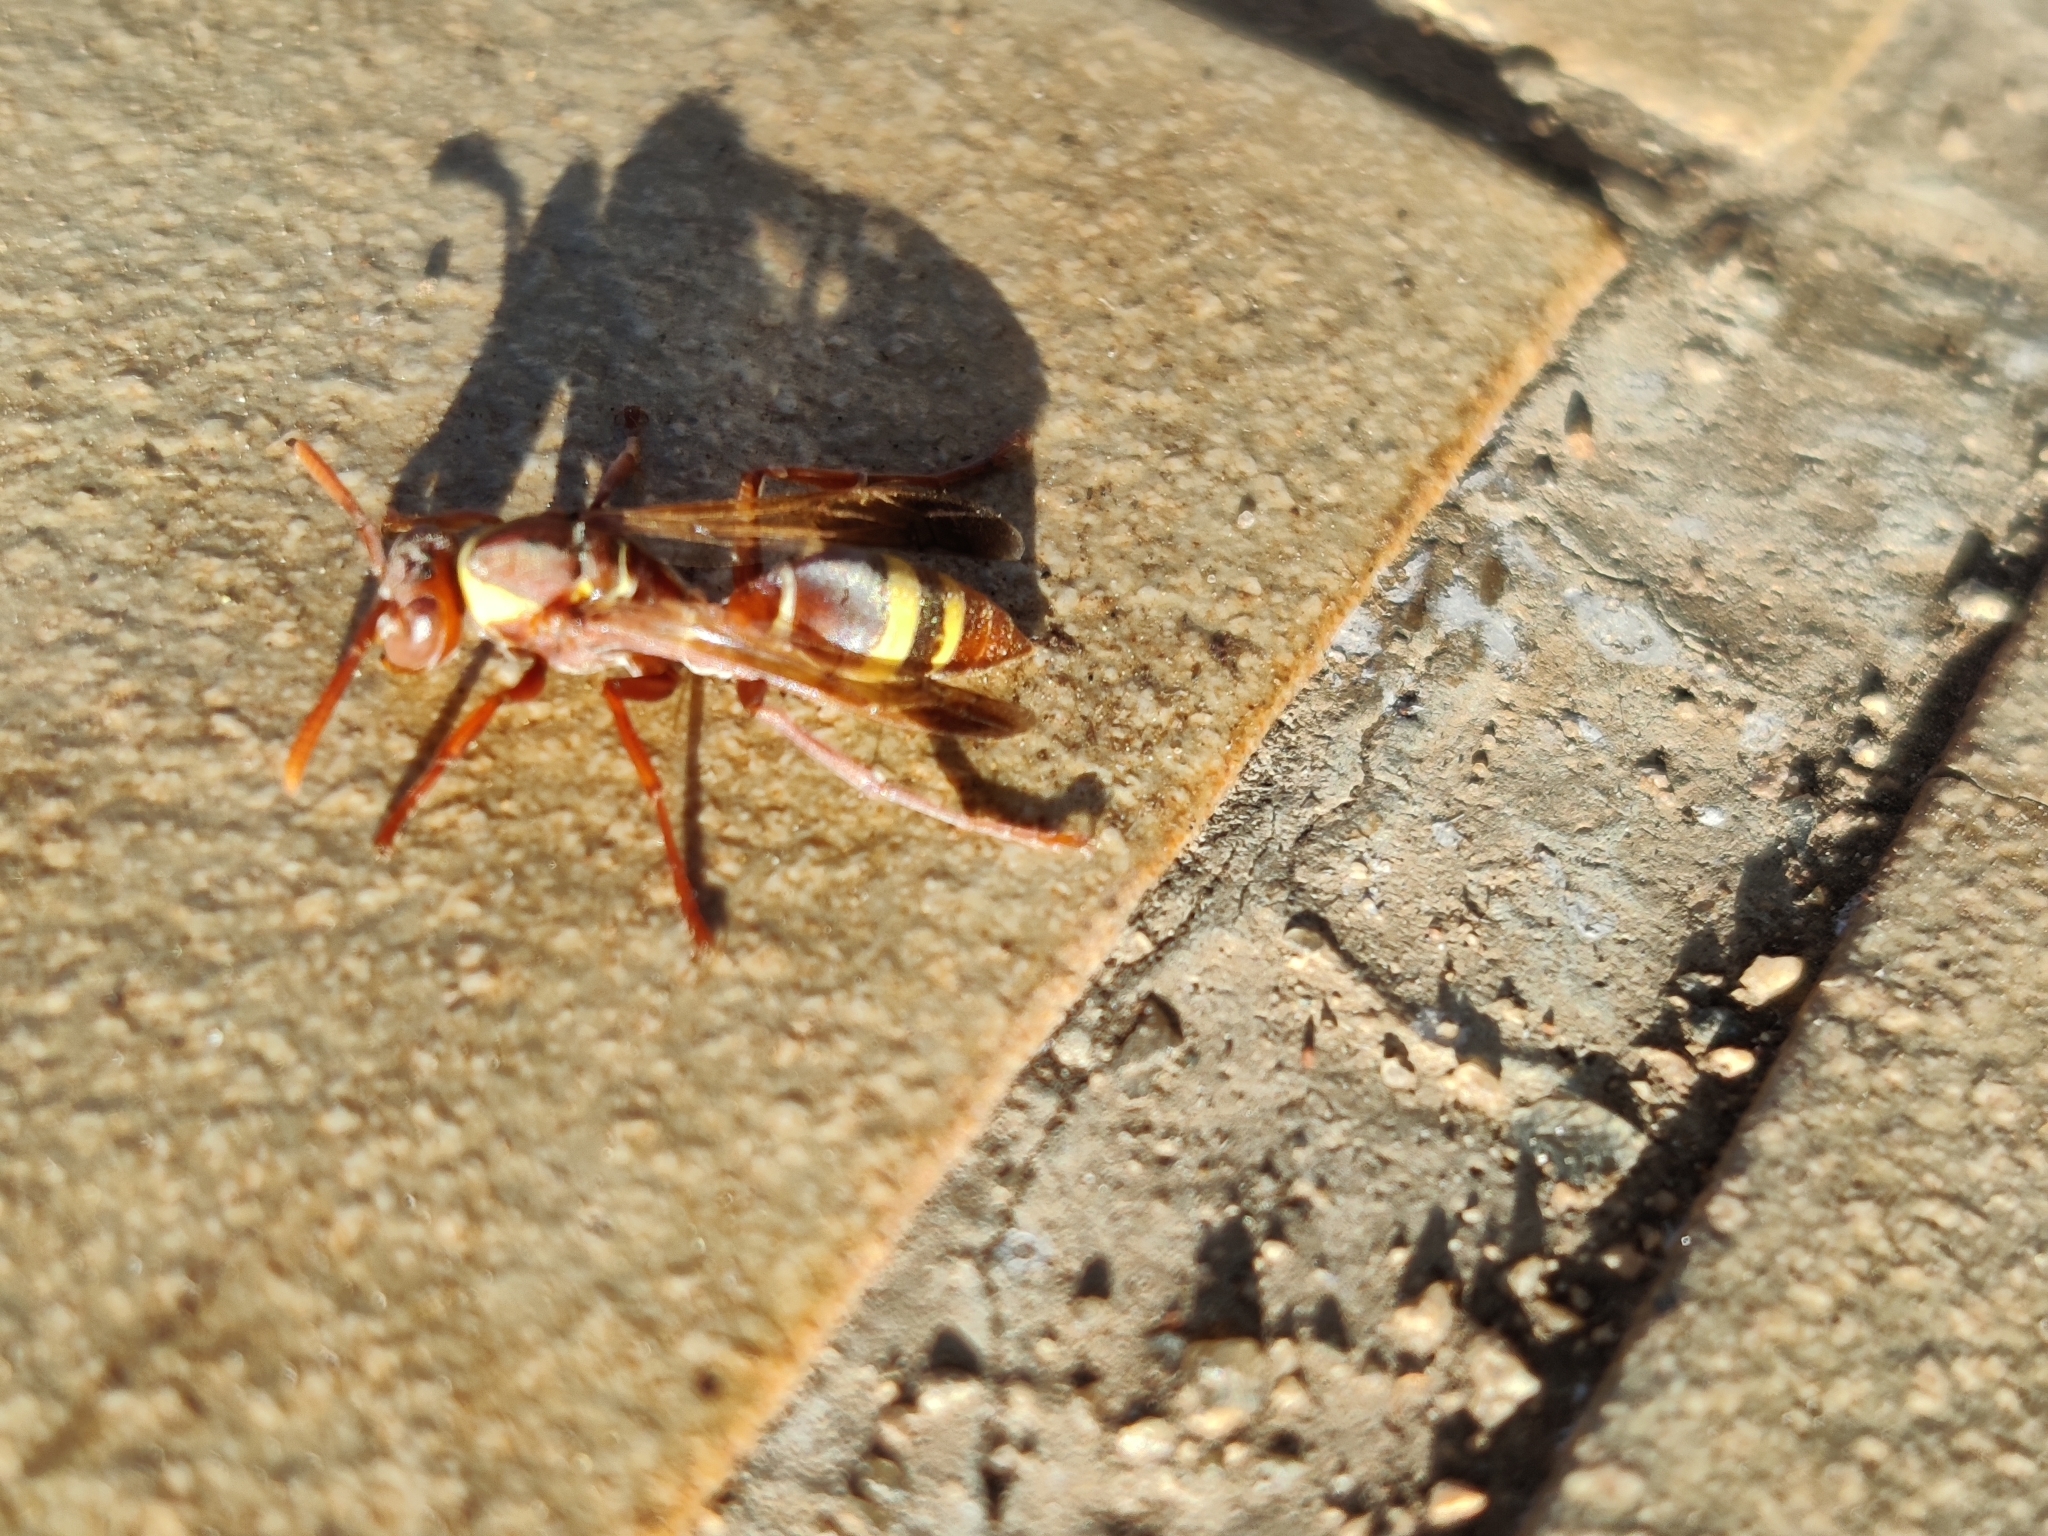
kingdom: Animalia
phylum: Arthropoda
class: Insecta
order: Hymenoptera
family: Eumenidae
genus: Polistes
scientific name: Polistes badius
